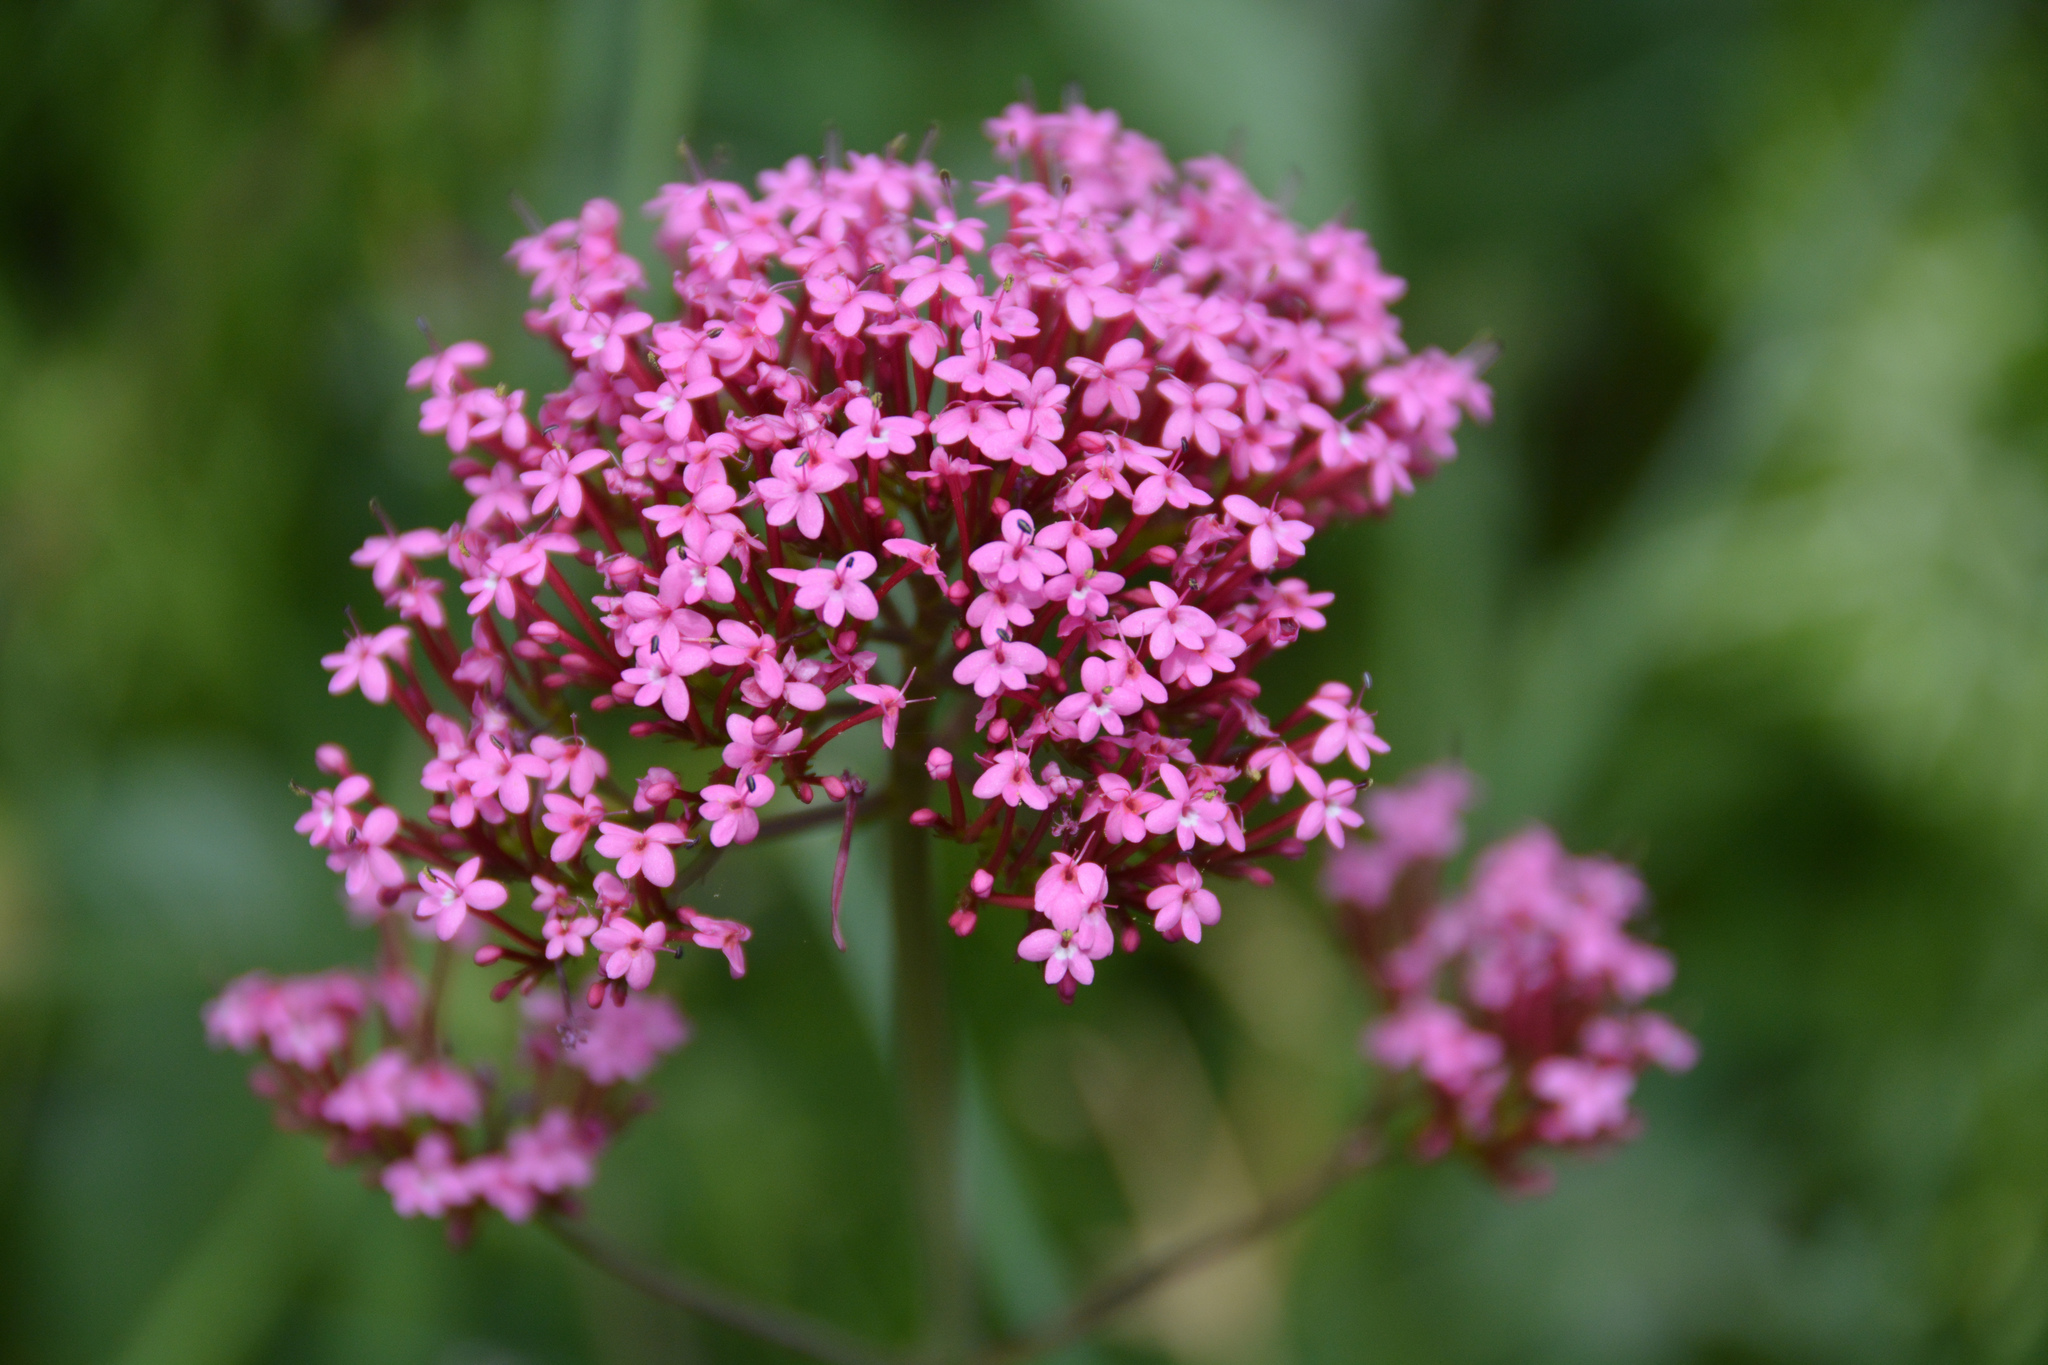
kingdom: Plantae
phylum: Tracheophyta
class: Magnoliopsida
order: Dipsacales
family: Caprifoliaceae
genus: Centranthus
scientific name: Centranthus ruber
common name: Red valerian
